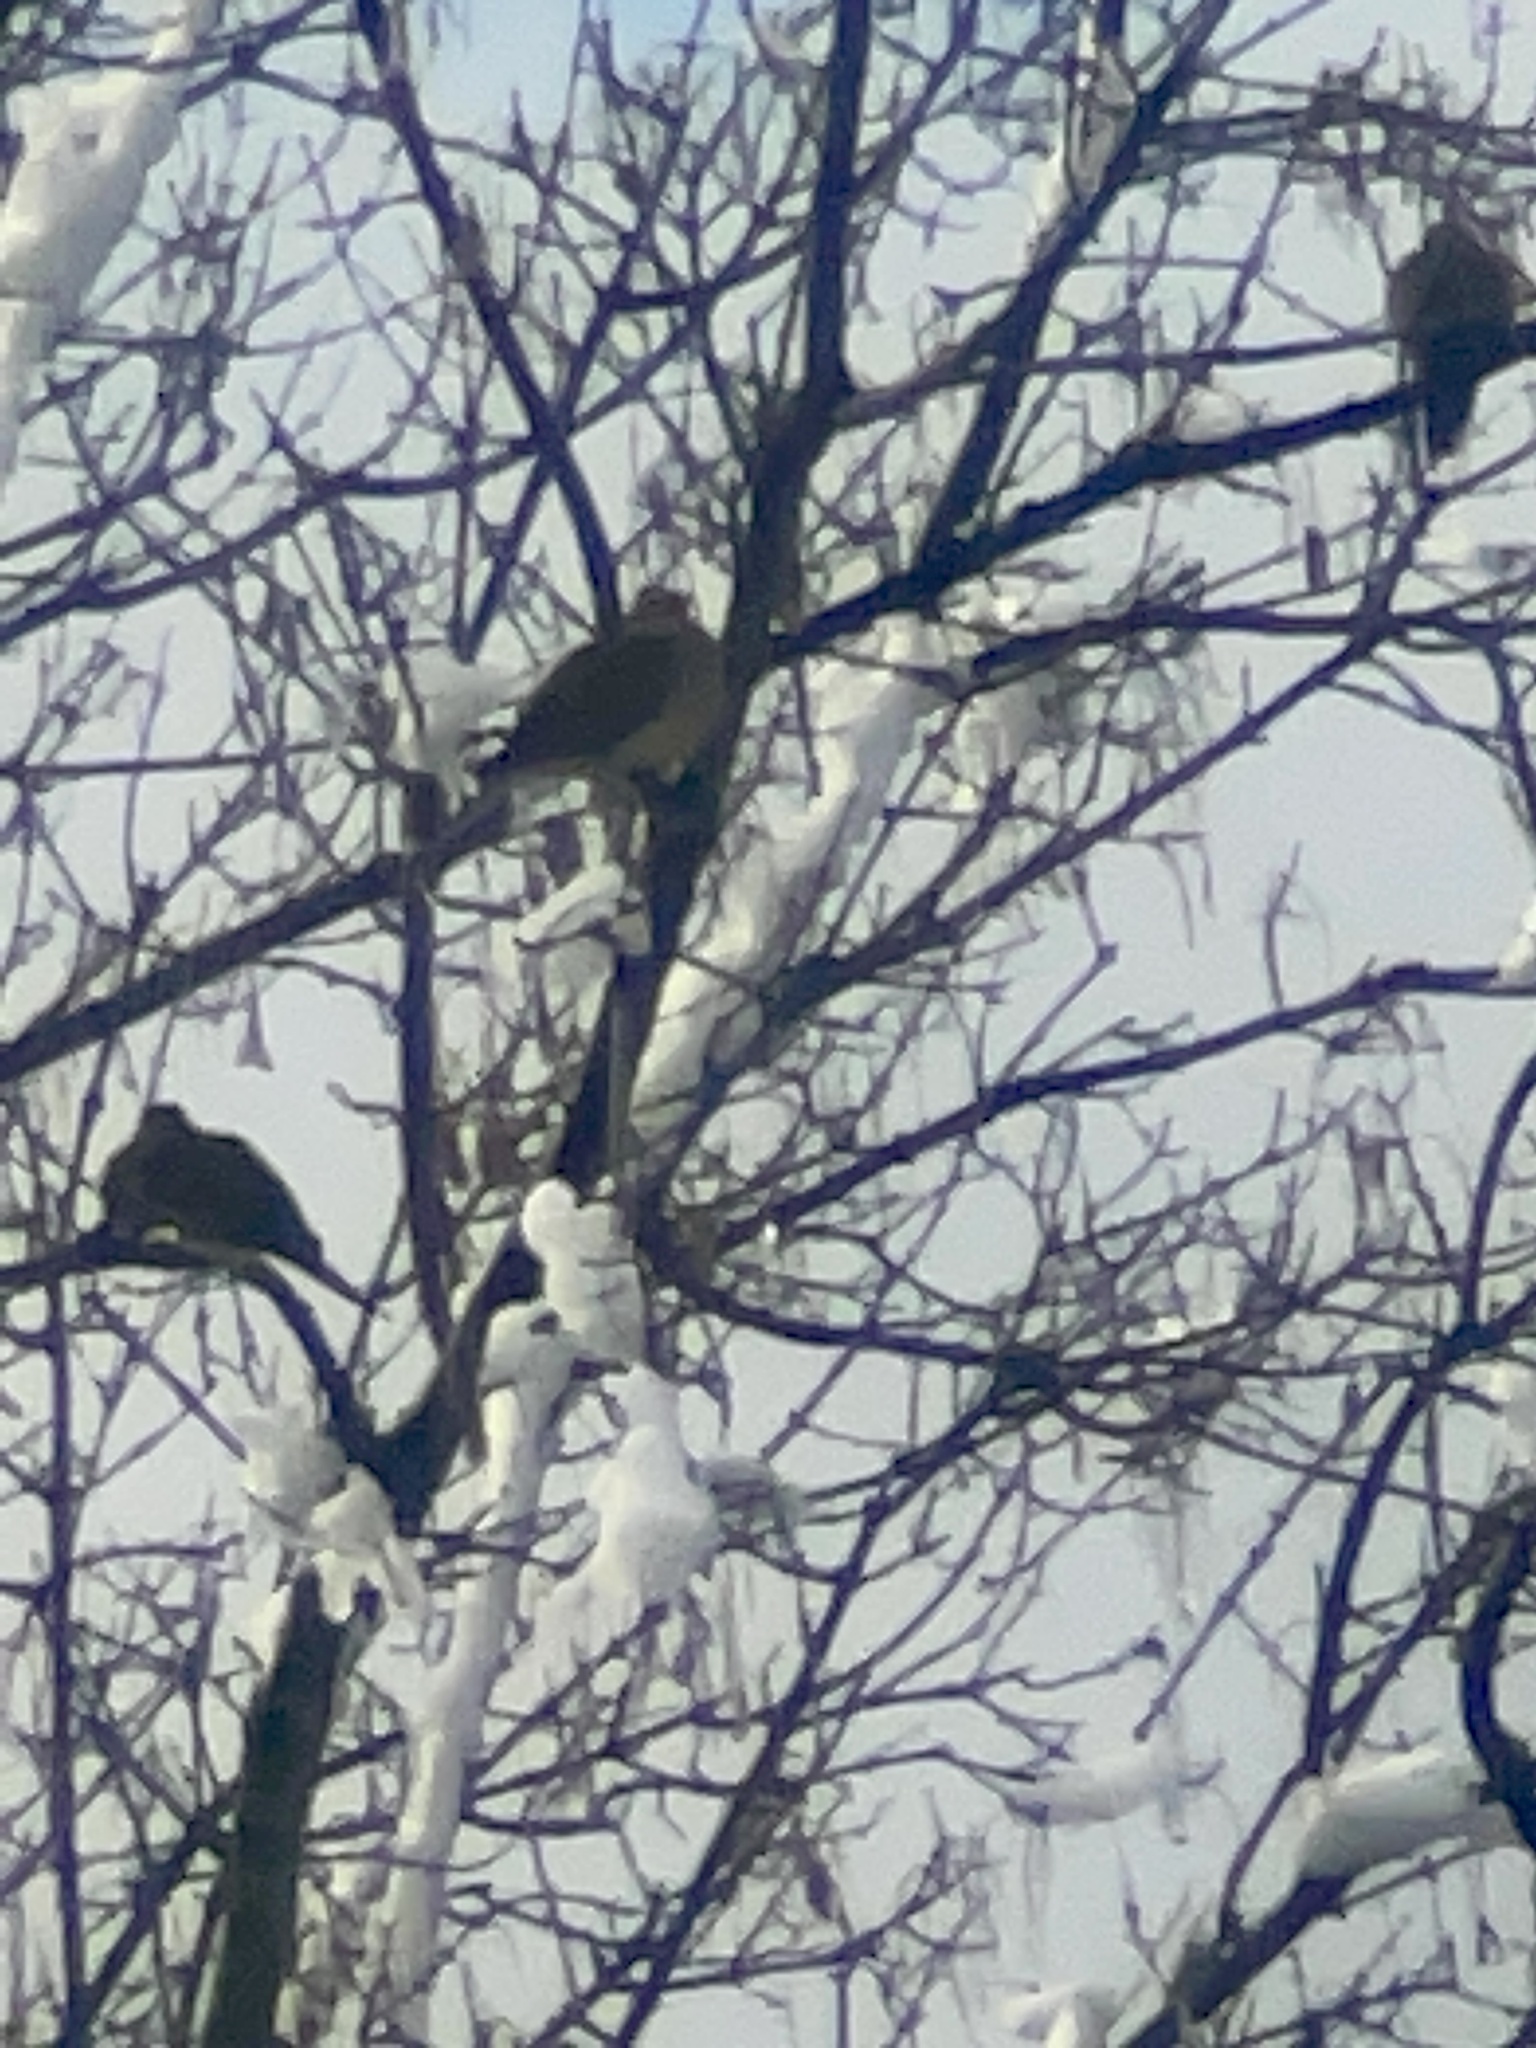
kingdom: Animalia
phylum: Chordata
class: Aves
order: Columbiformes
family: Columbidae
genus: Zenaida
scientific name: Zenaida macroura
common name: Mourning dove
